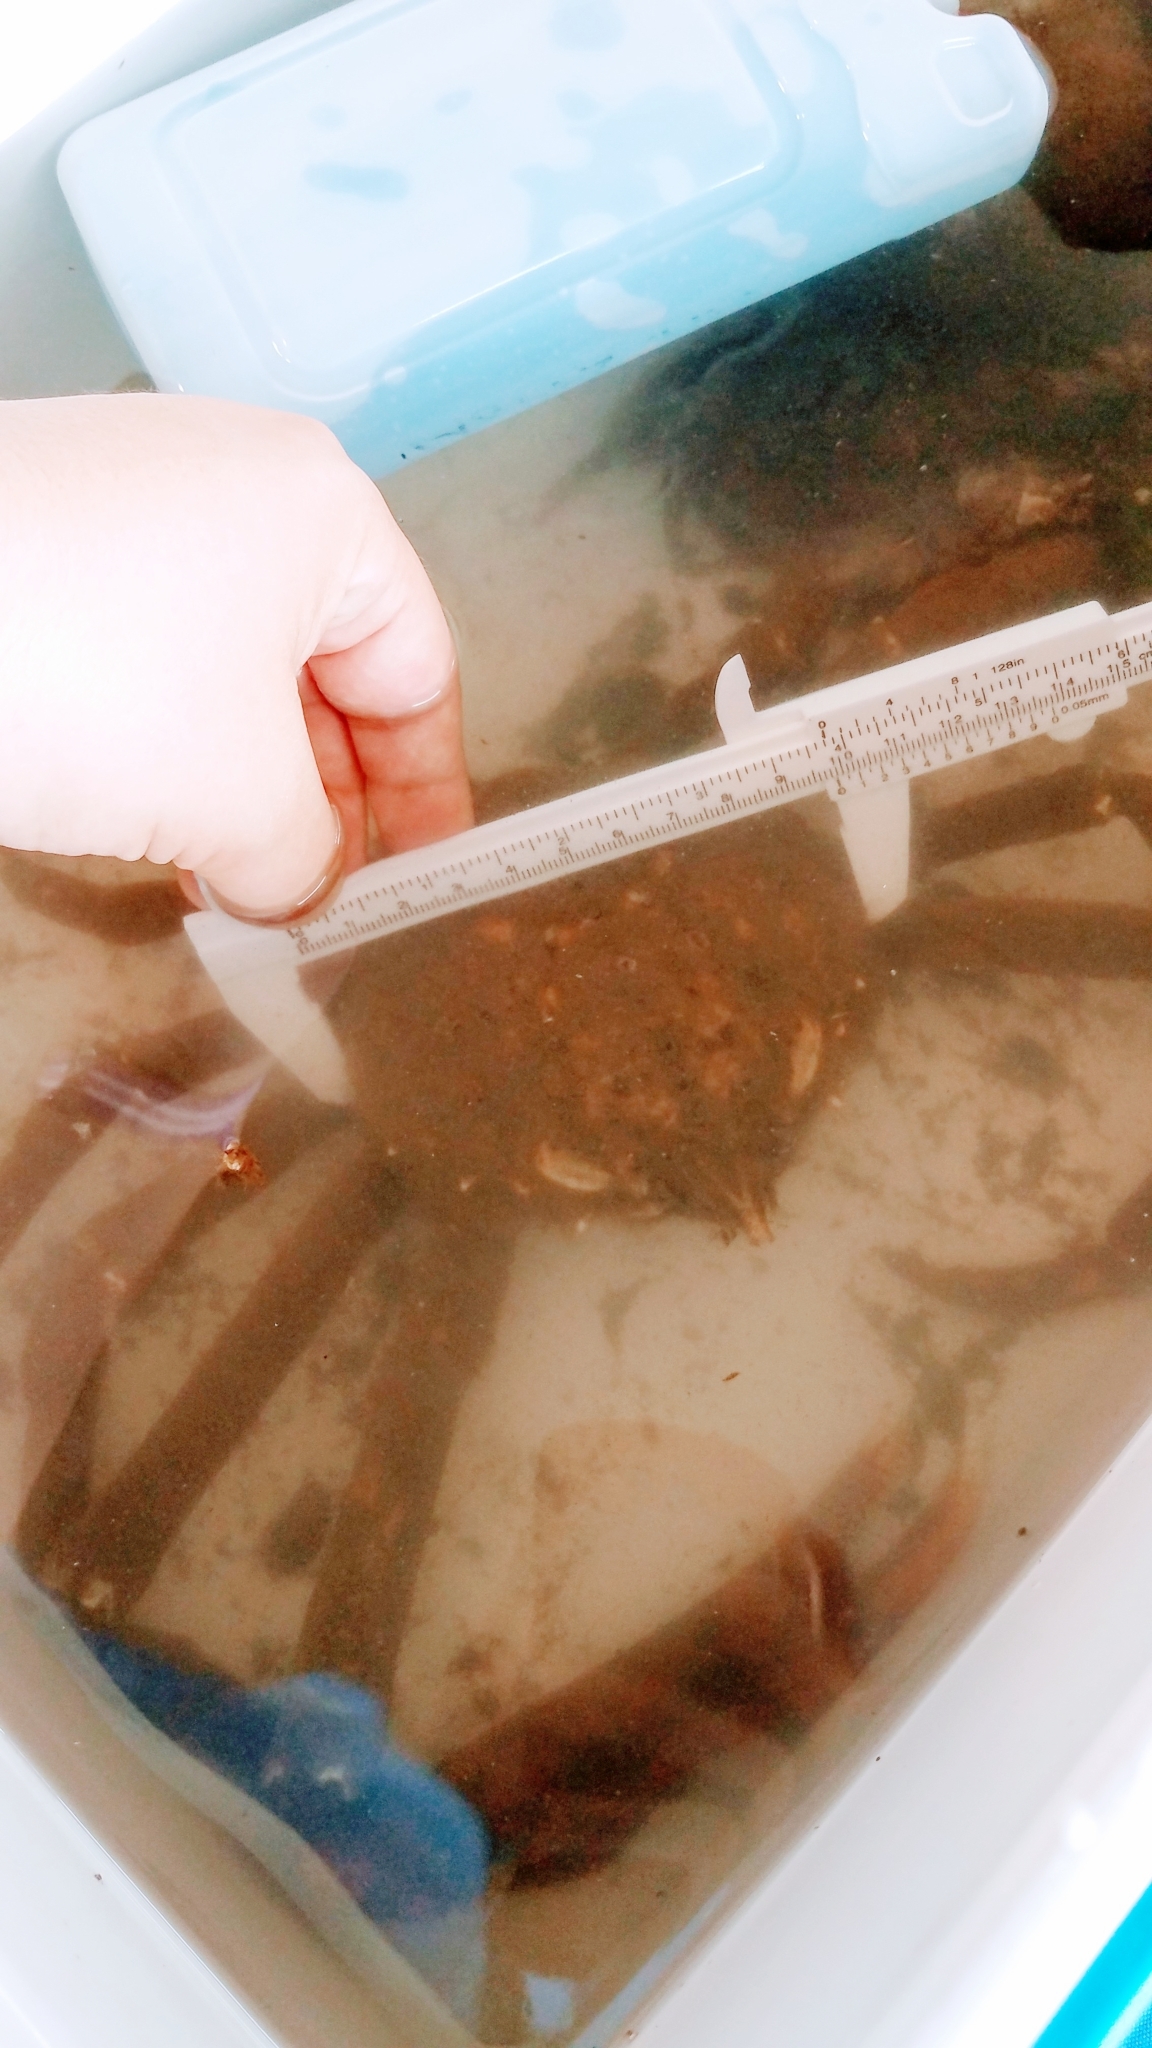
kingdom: Animalia
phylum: Arthropoda
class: Malacostraca
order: Decapoda
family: Epialtidae
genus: Libinia
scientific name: Libinia emarginata
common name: Common spider crab
